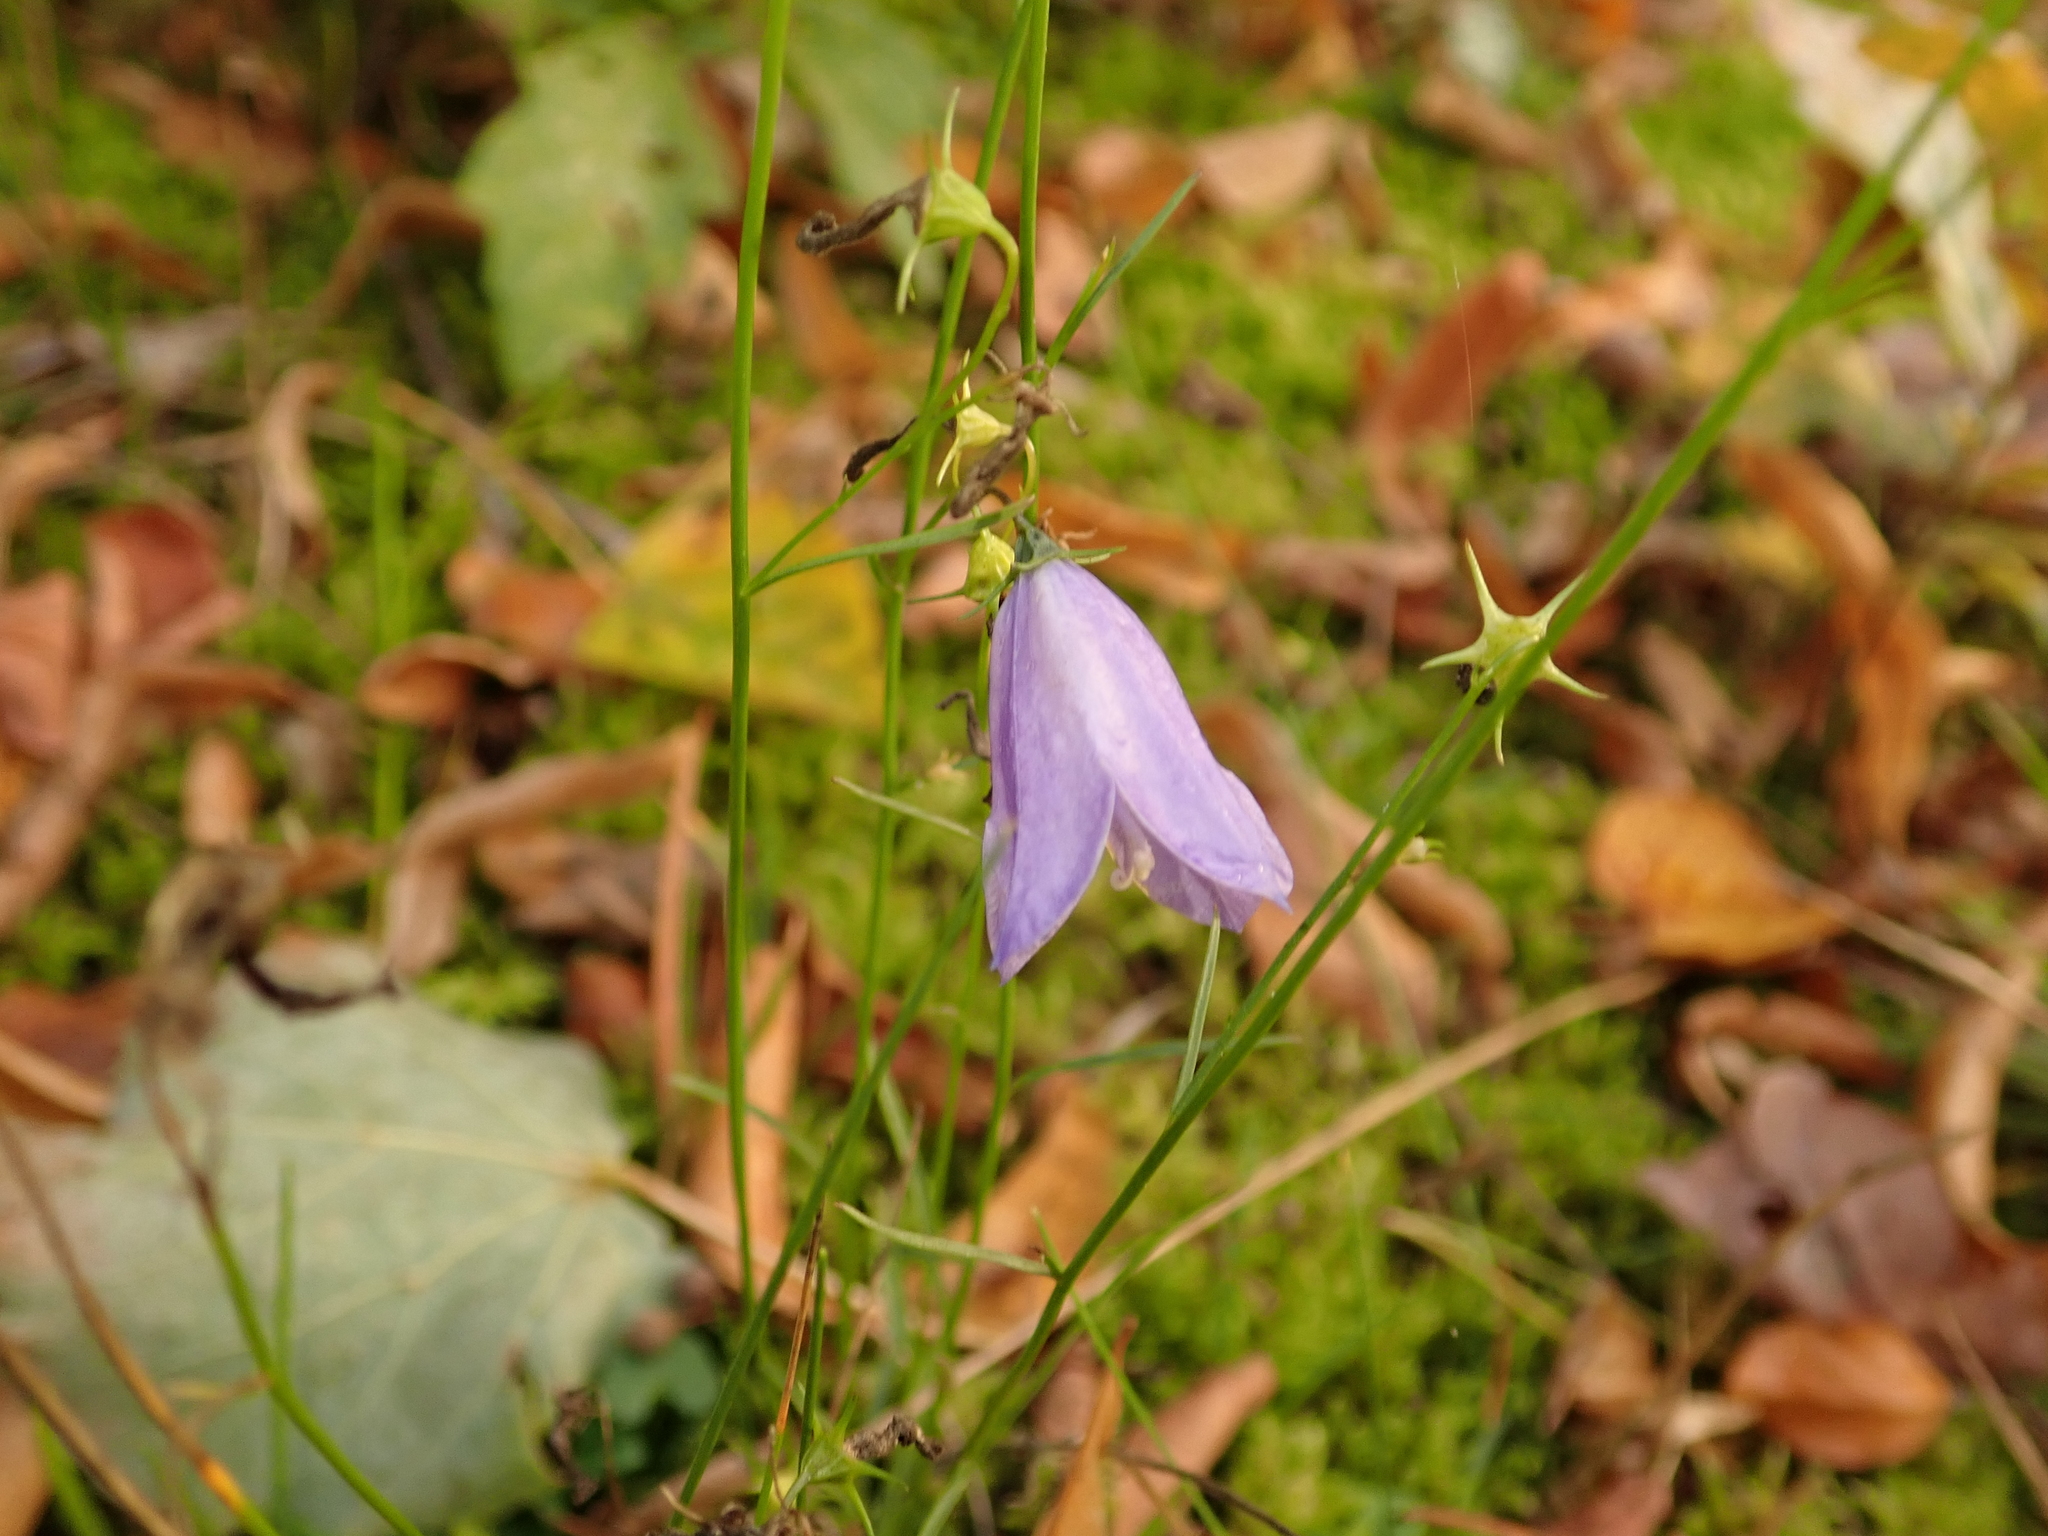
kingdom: Plantae
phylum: Tracheophyta
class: Magnoliopsida
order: Asterales
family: Campanulaceae
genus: Campanula
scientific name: Campanula rotundifolia
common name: Harebell
